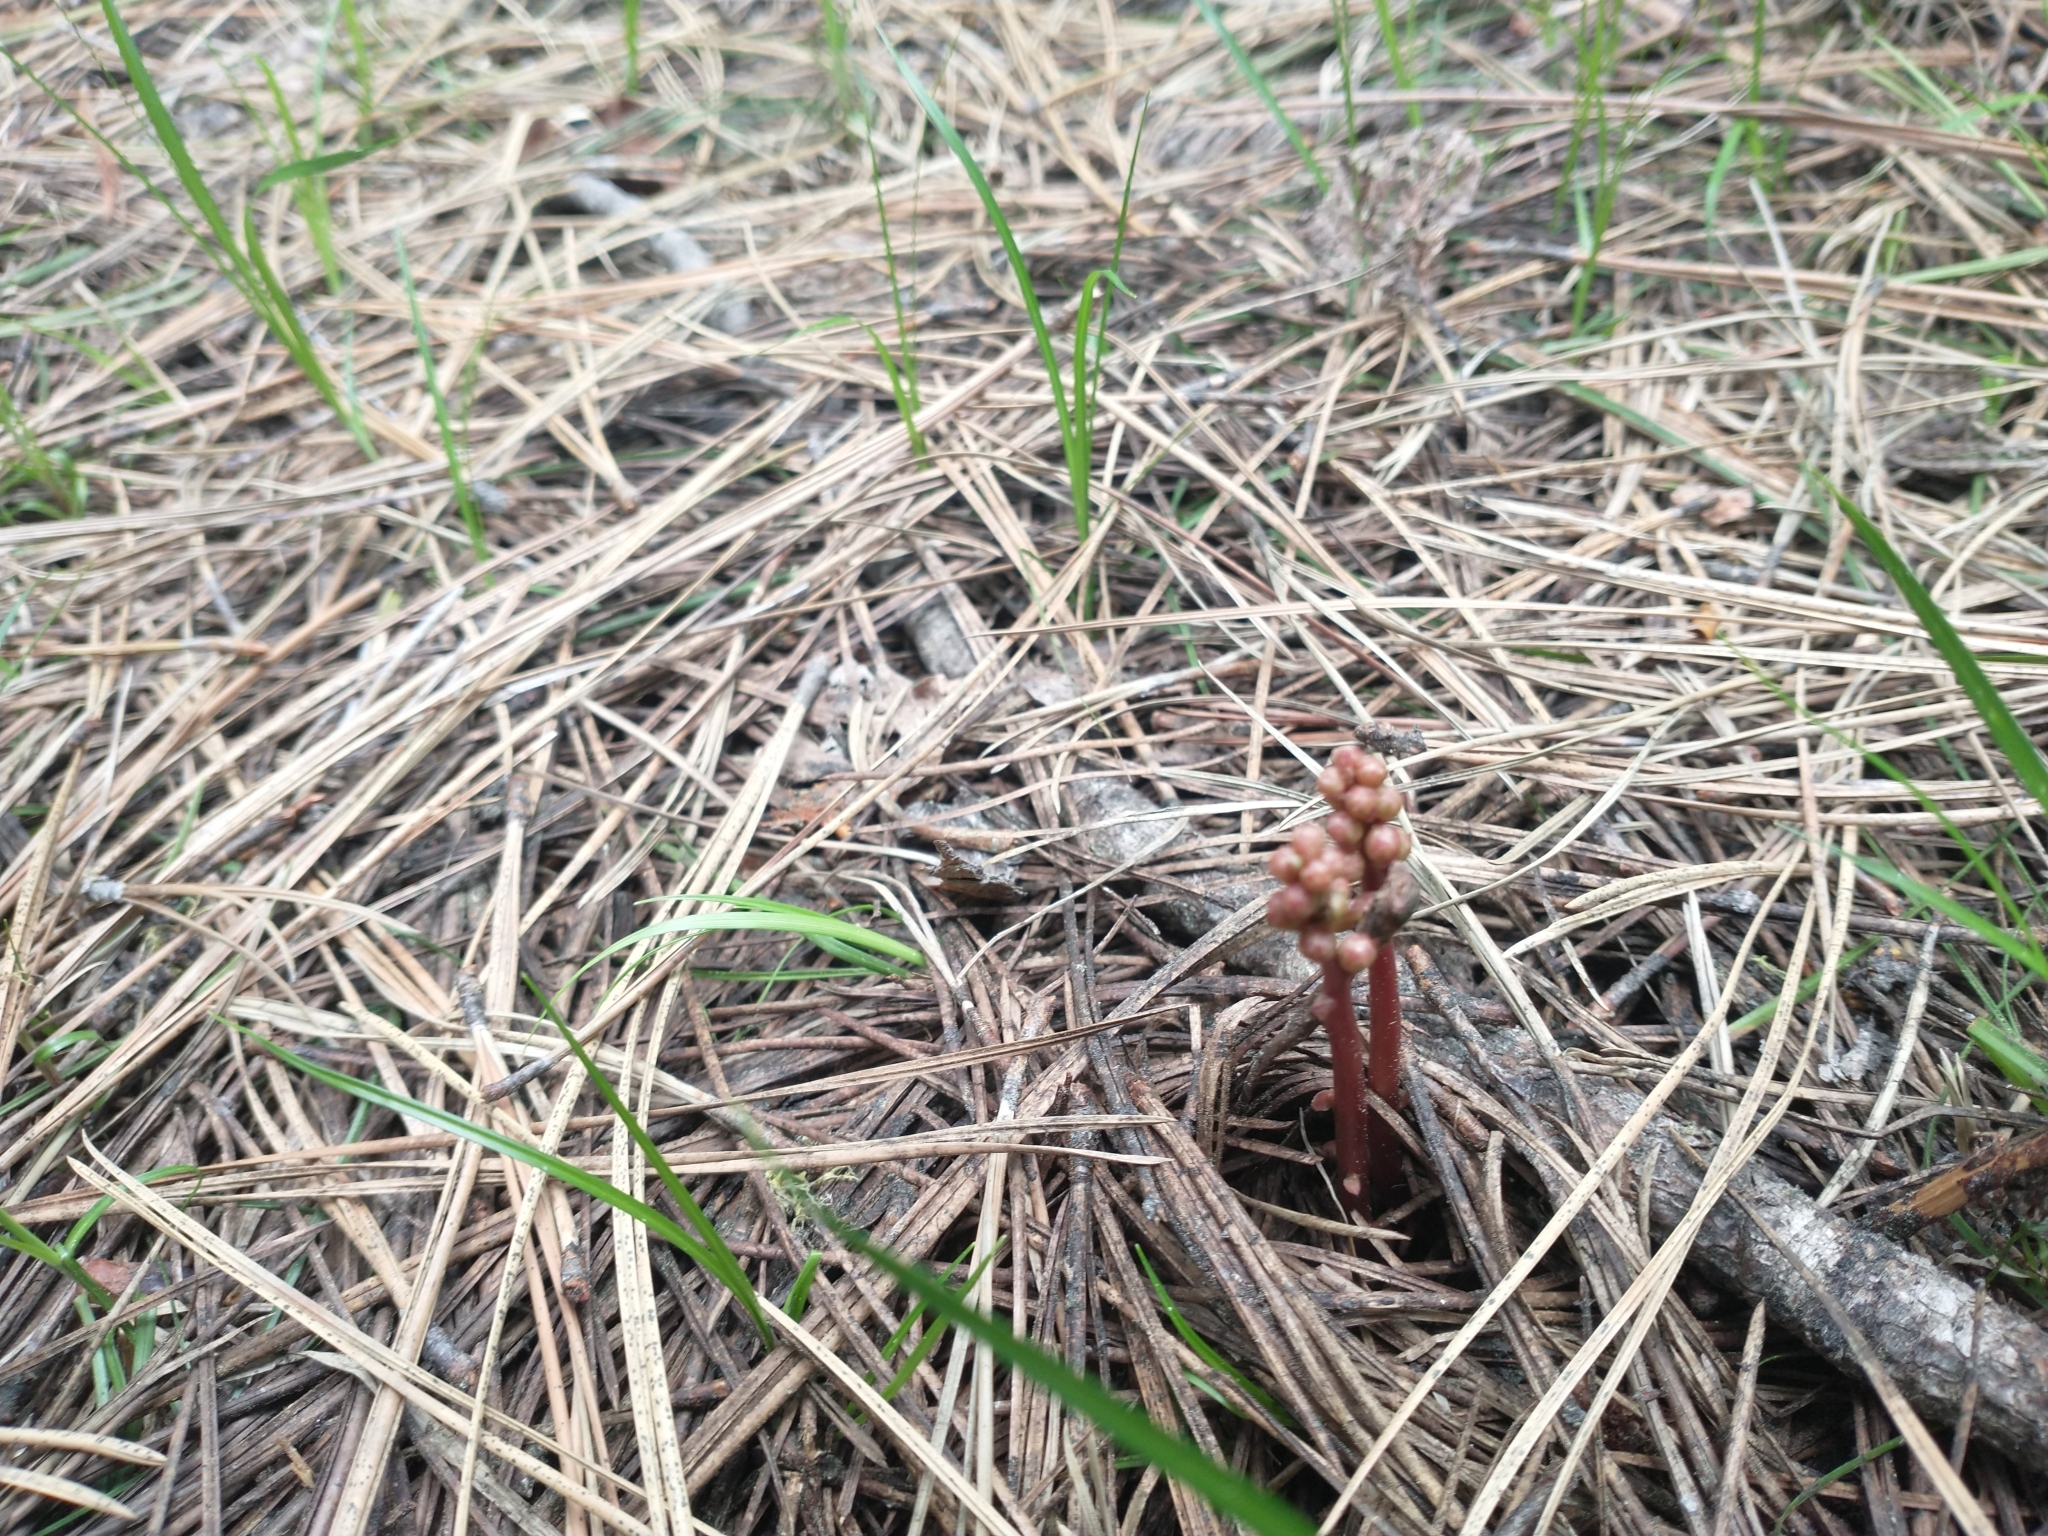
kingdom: Plantae
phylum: Tracheophyta
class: Magnoliopsida
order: Ericales
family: Ericaceae
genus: Pyrola
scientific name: Pyrola aphylla
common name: Leafless wintergreen
